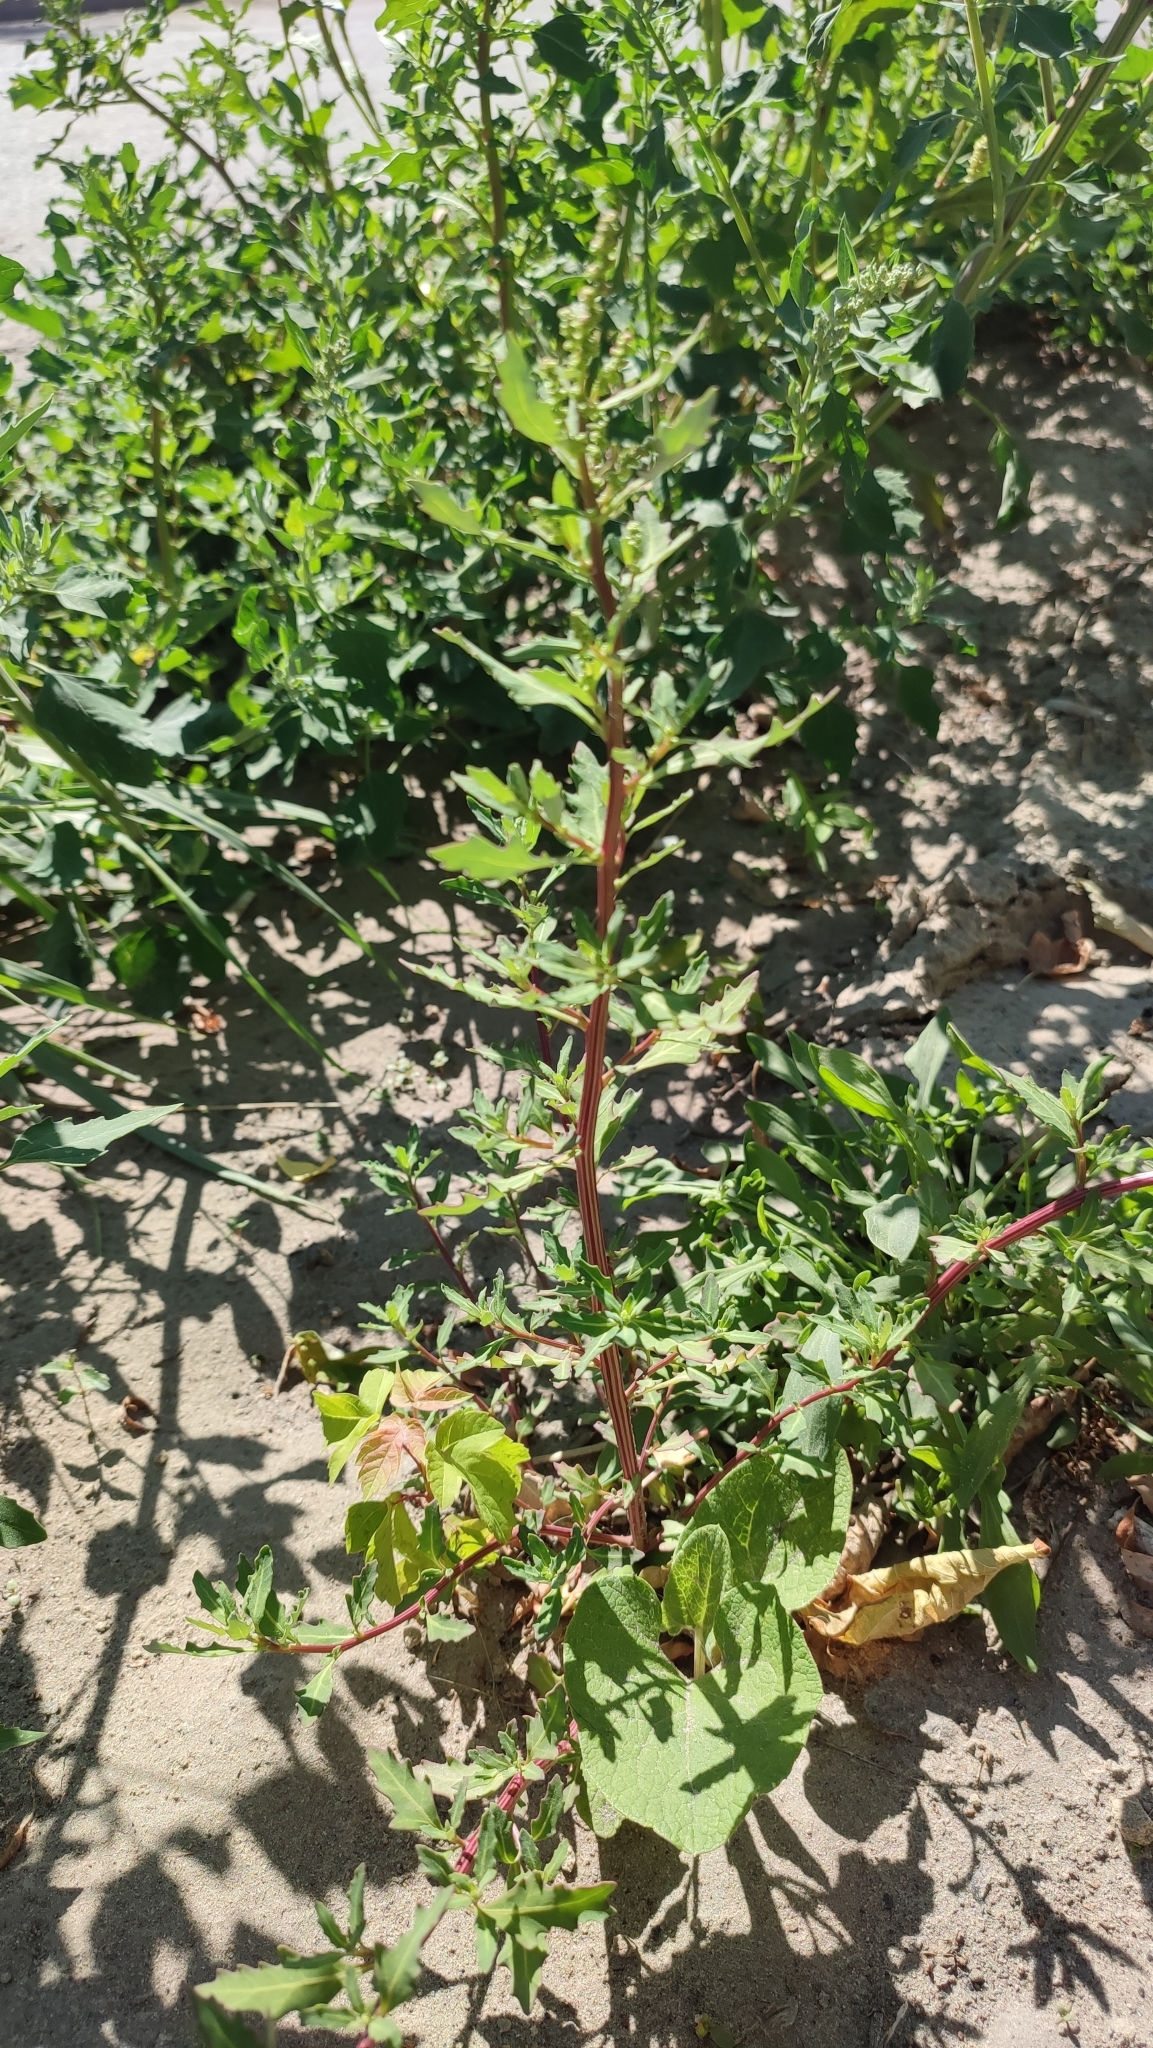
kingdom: Plantae
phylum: Tracheophyta
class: Magnoliopsida
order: Caryophyllales
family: Amaranthaceae
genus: Oxybasis
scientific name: Oxybasis glauca
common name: Glaucous goosefoot
